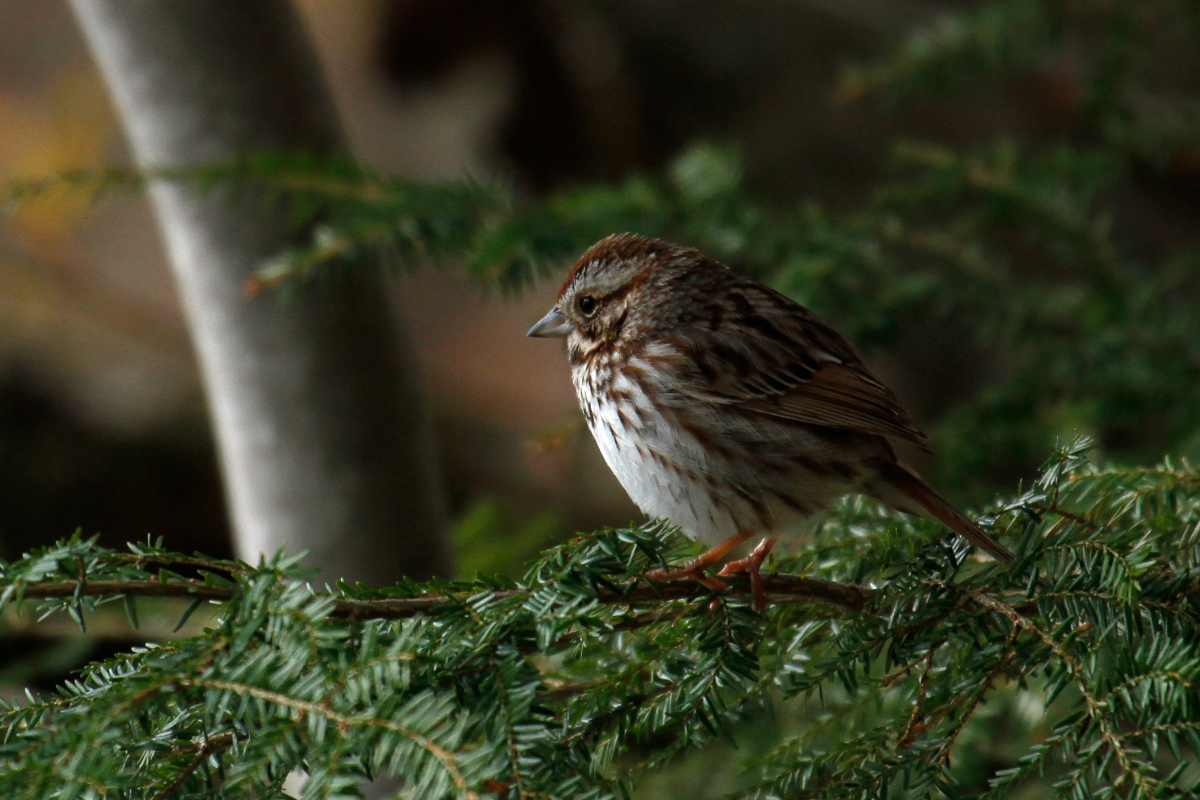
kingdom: Animalia
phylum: Chordata
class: Aves
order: Passeriformes
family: Passerellidae
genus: Melospiza
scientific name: Melospiza melodia
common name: Song sparrow
